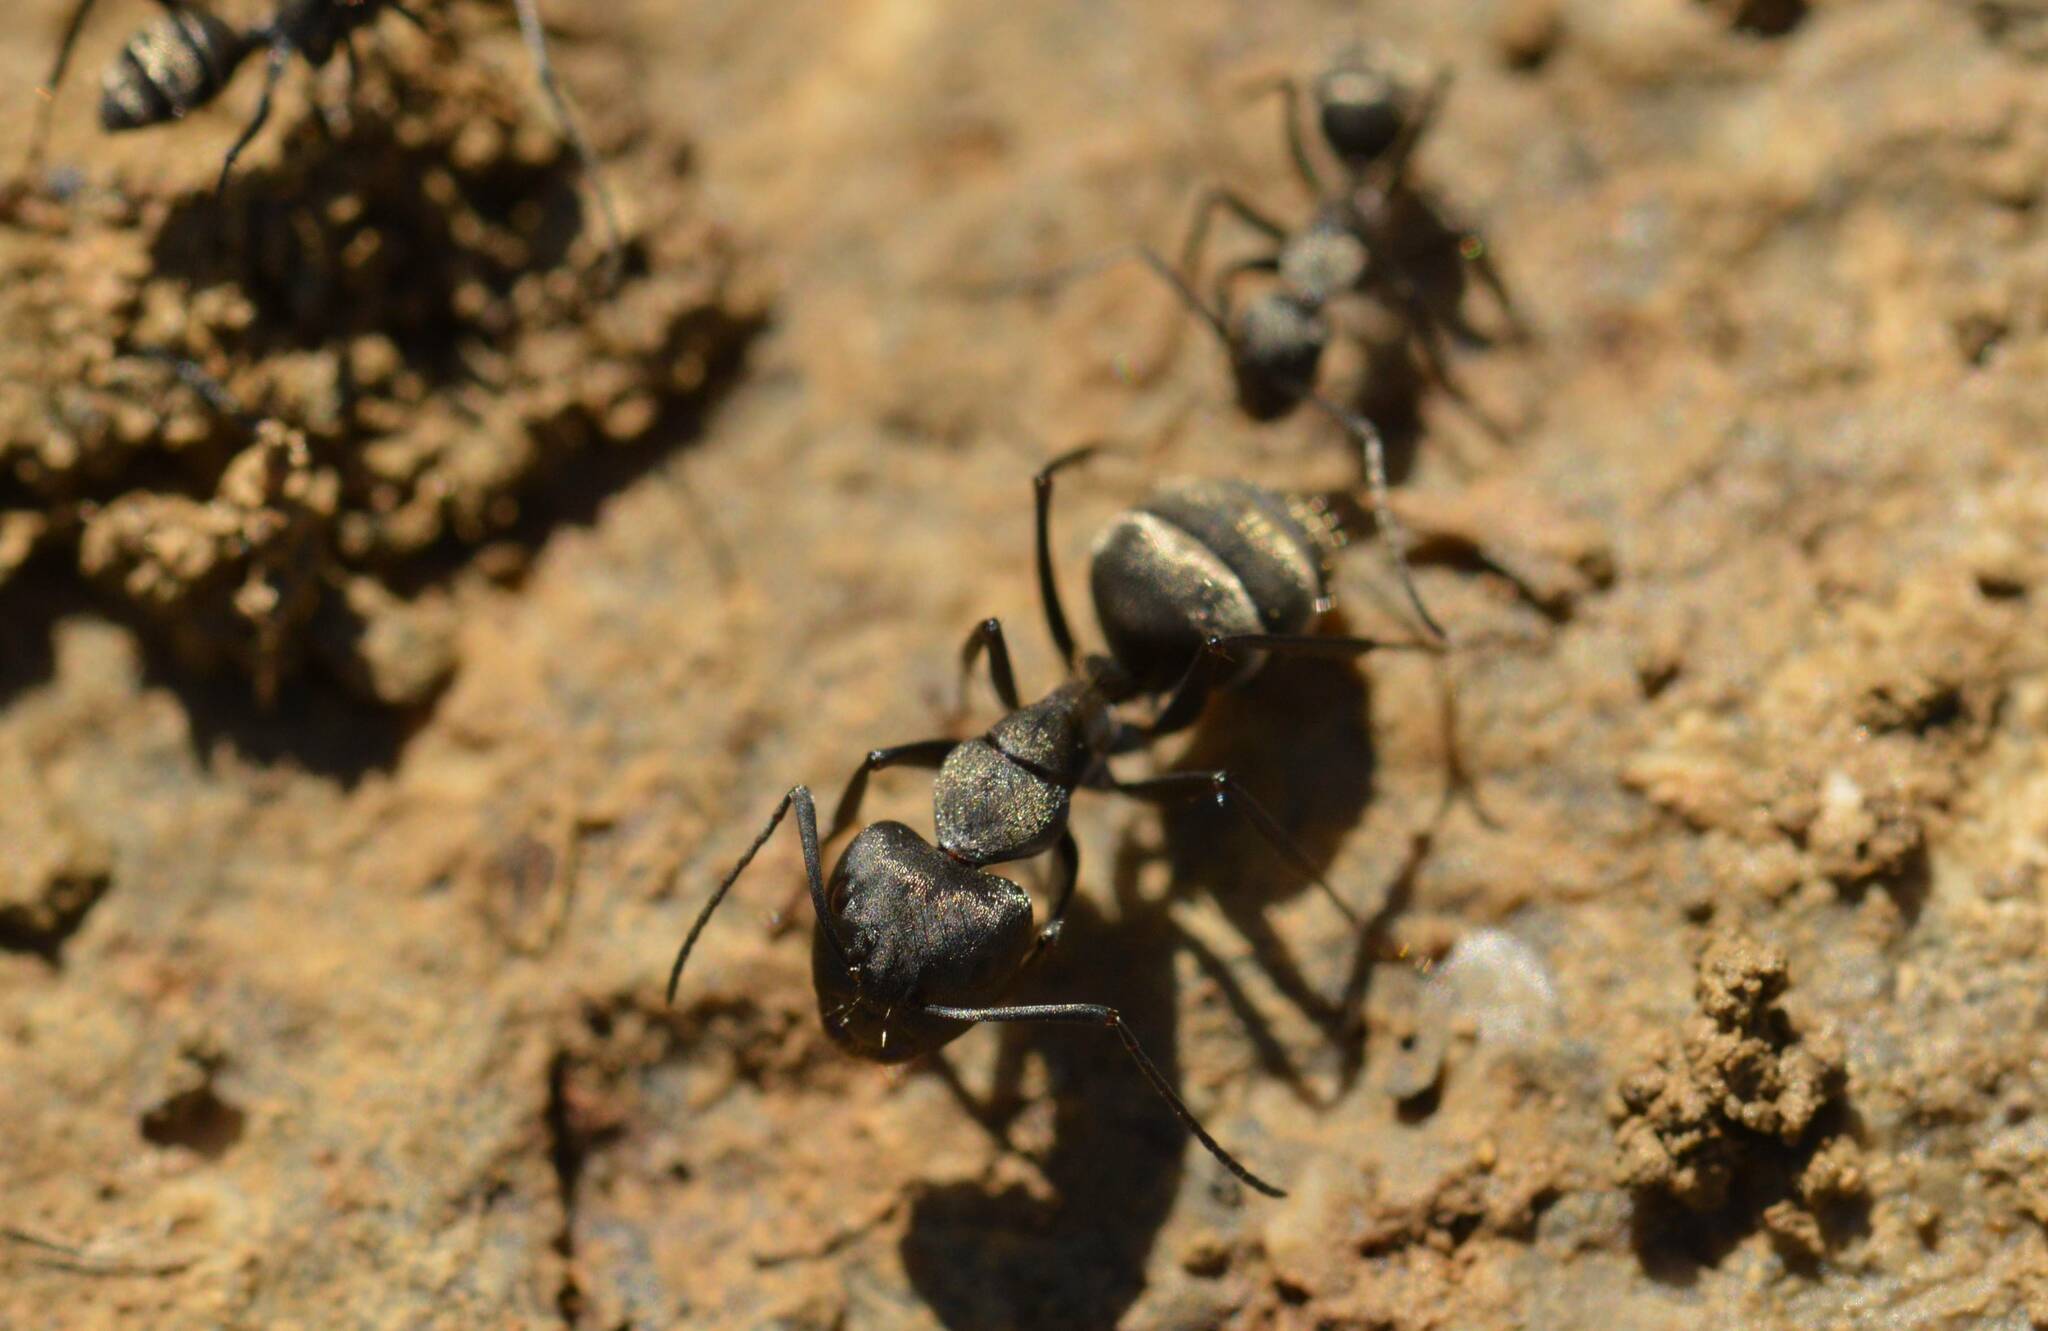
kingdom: Animalia
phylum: Arthropoda
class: Insecta
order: Hymenoptera
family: Formicidae
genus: Camponotus
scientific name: Camponotus micans
